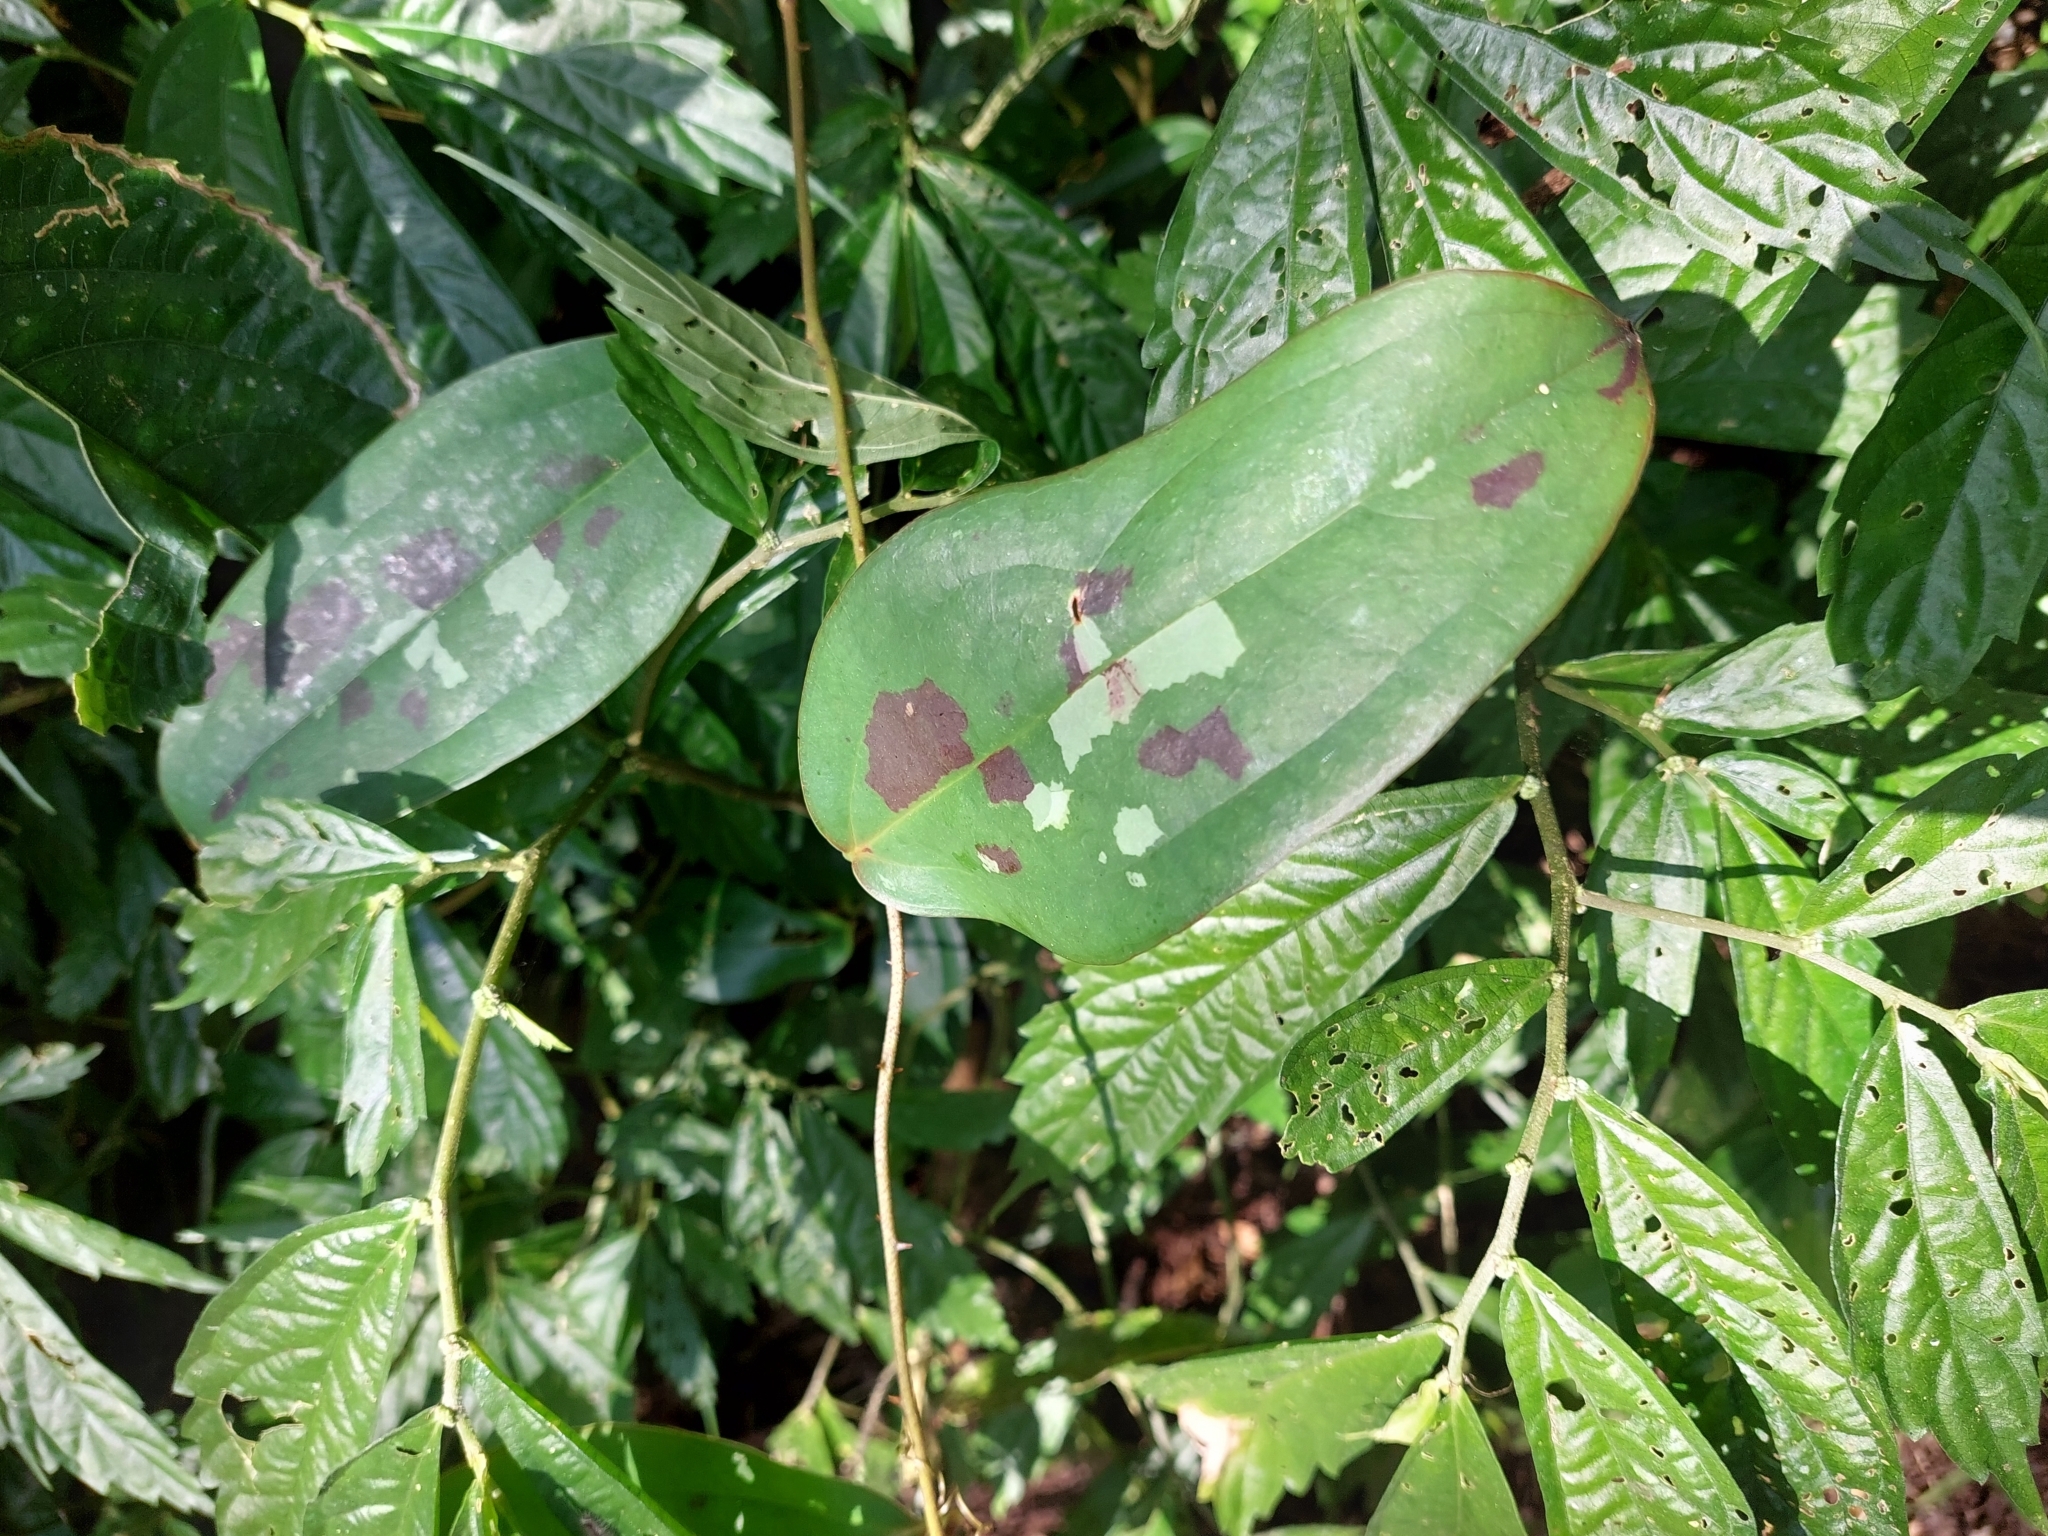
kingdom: Plantae
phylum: Tracheophyta
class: Liliopsida
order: Liliales
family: Smilacaceae
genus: Smilax
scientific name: Smilax aspericaulis
